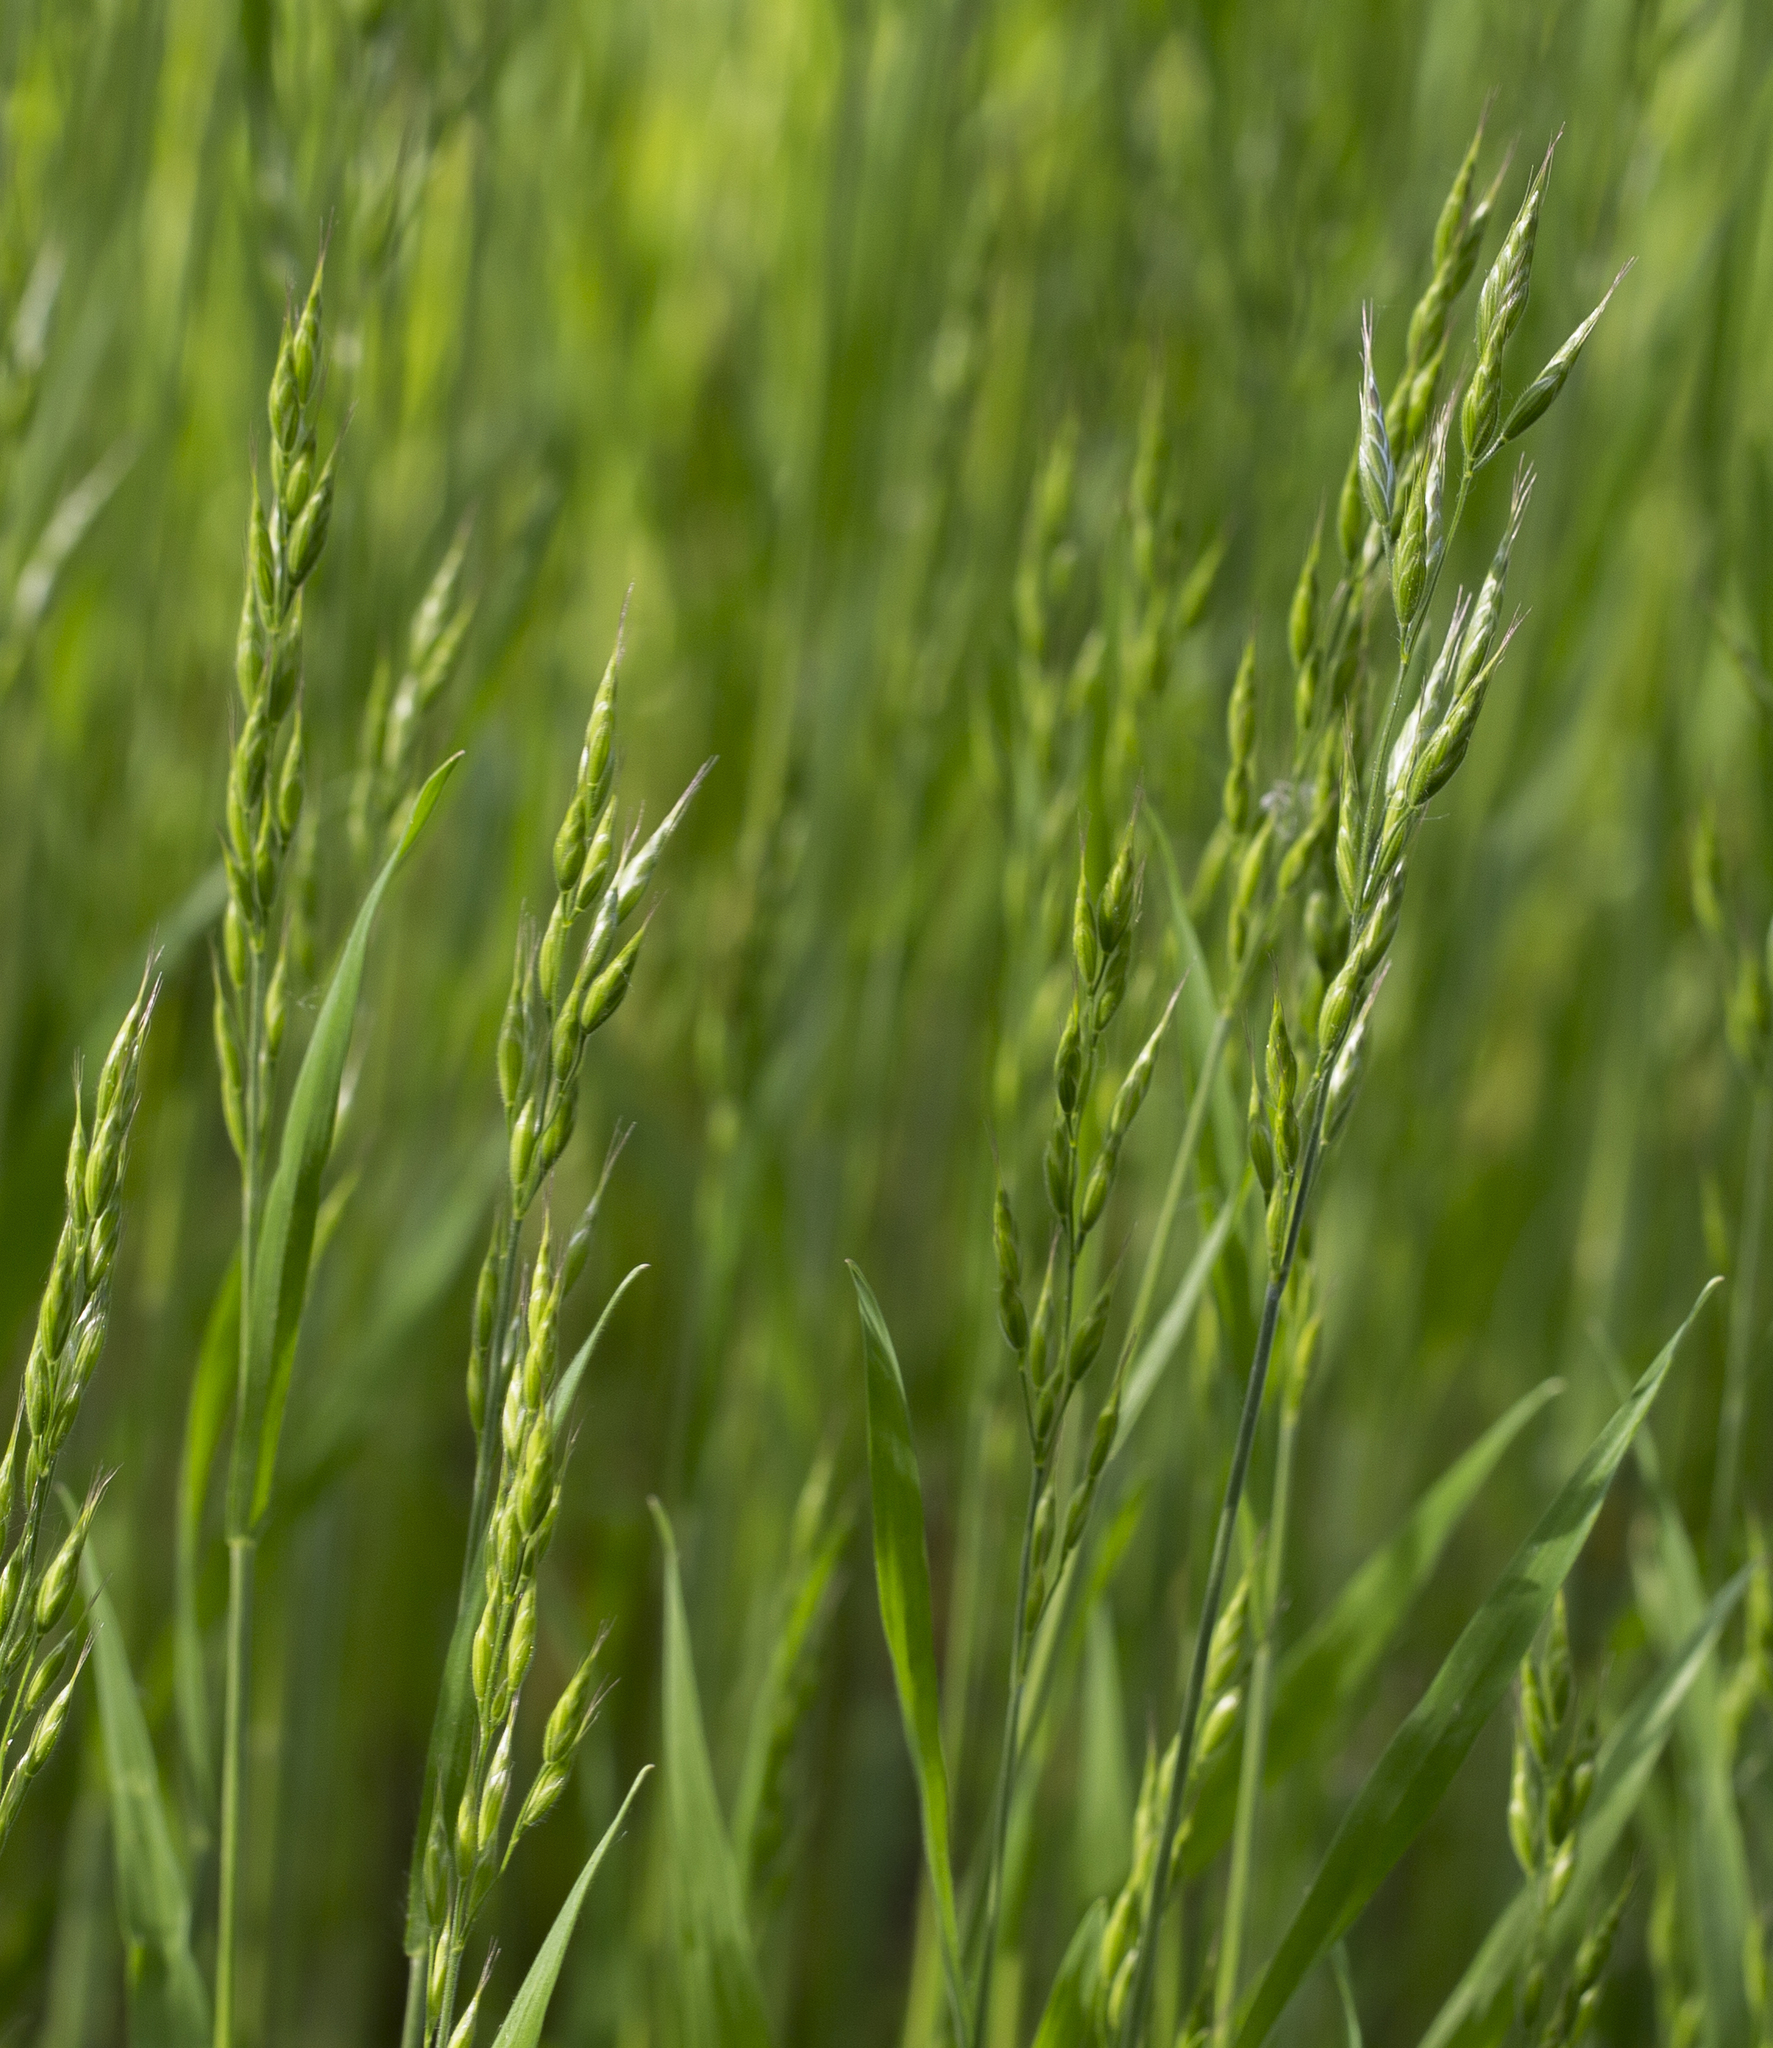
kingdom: Plantae
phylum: Tracheophyta
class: Liliopsida
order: Poales
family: Poaceae
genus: Bromus
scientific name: Bromus hordeaceus
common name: Soft brome
